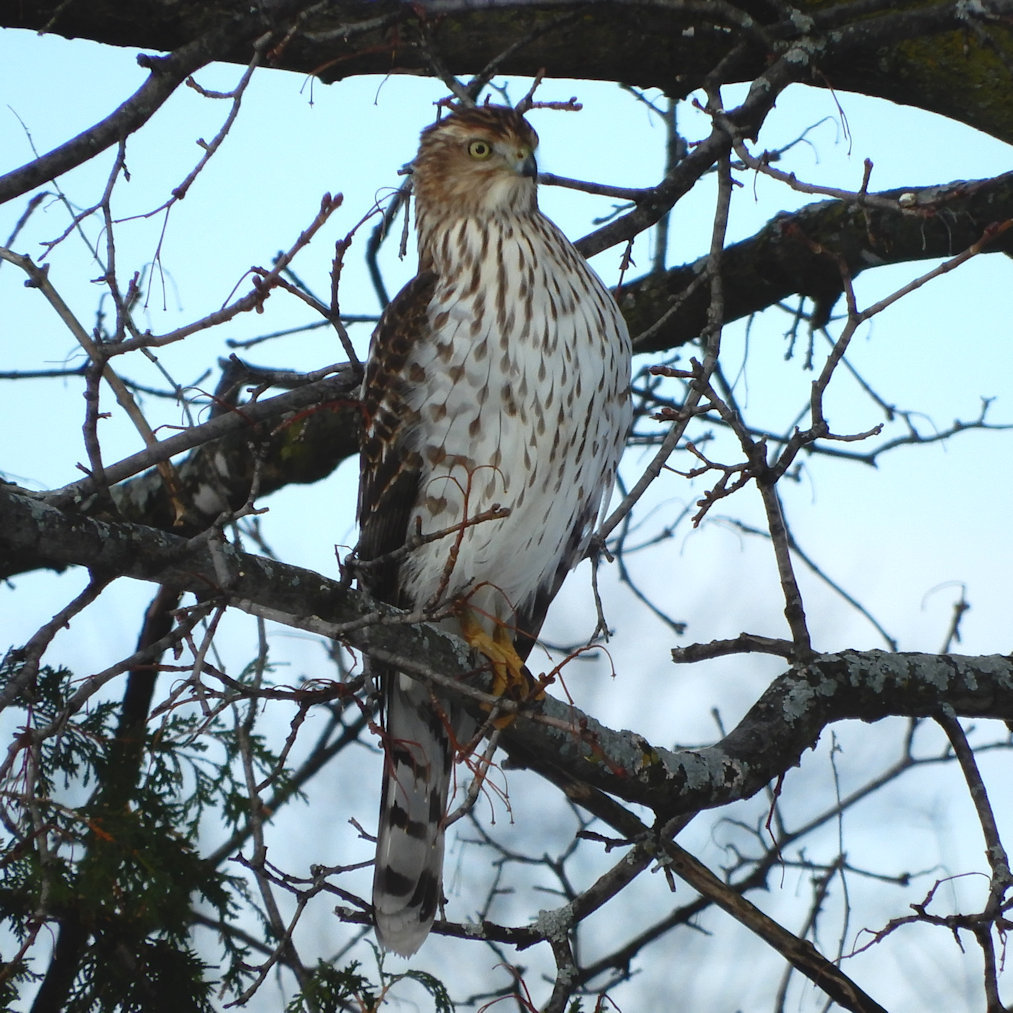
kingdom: Animalia
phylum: Chordata
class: Aves
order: Accipitriformes
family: Accipitridae
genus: Accipiter
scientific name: Accipiter cooperii
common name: Cooper's hawk
